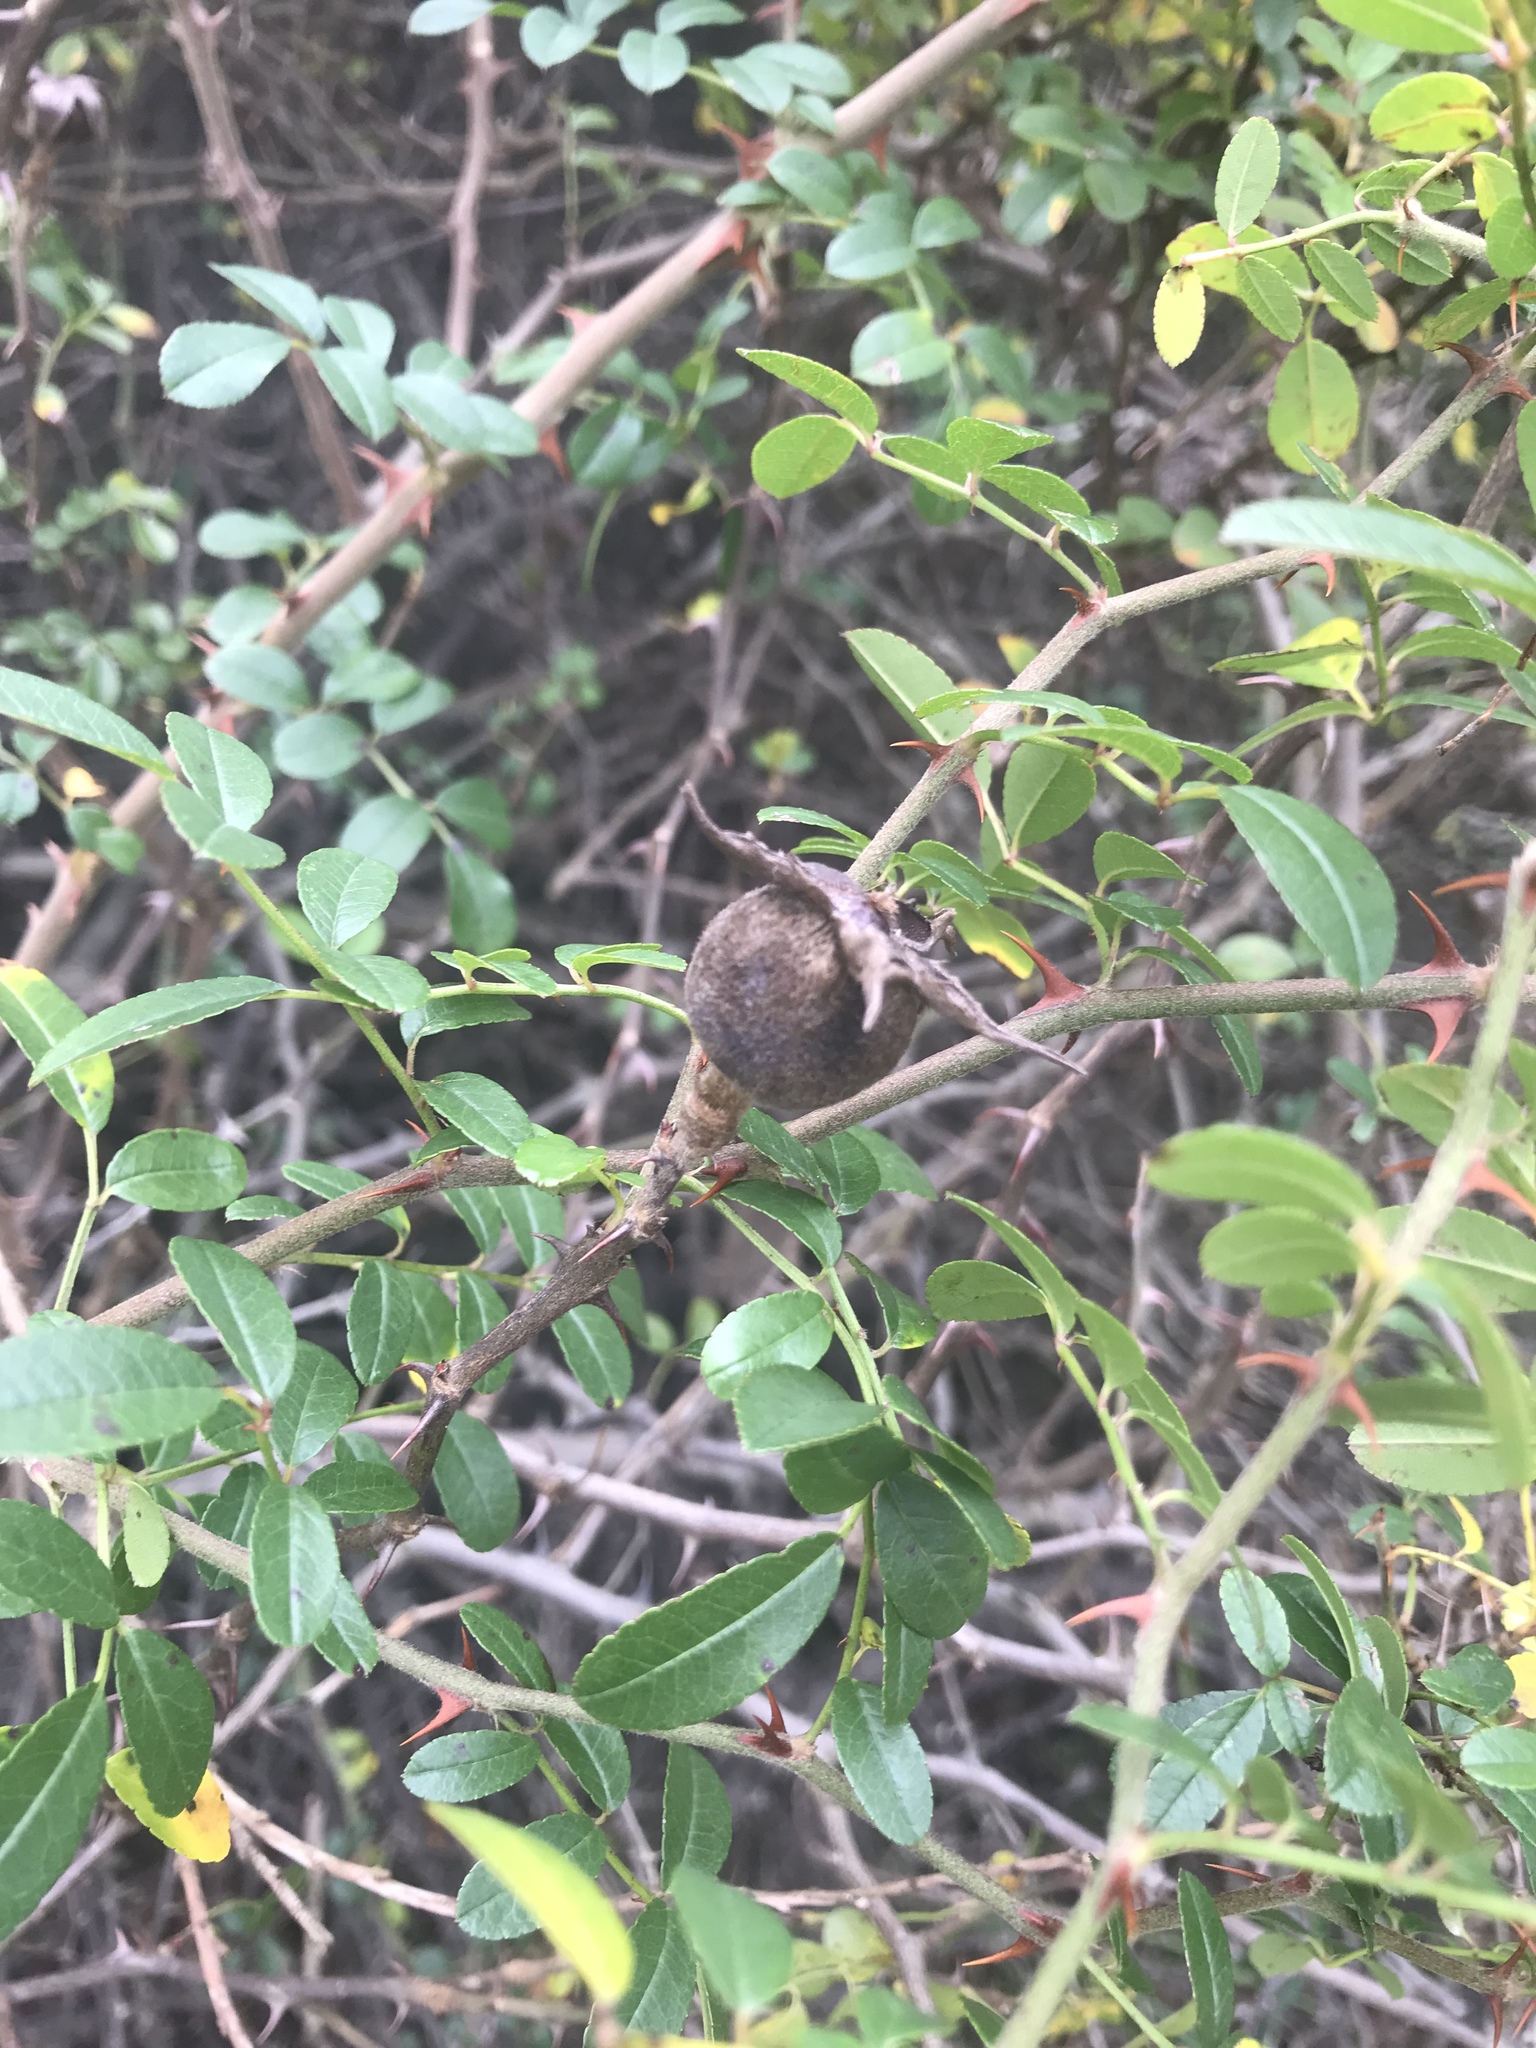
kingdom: Plantae
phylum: Tracheophyta
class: Magnoliopsida
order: Rosales
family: Rosaceae
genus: Rosa
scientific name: Rosa bracteata
